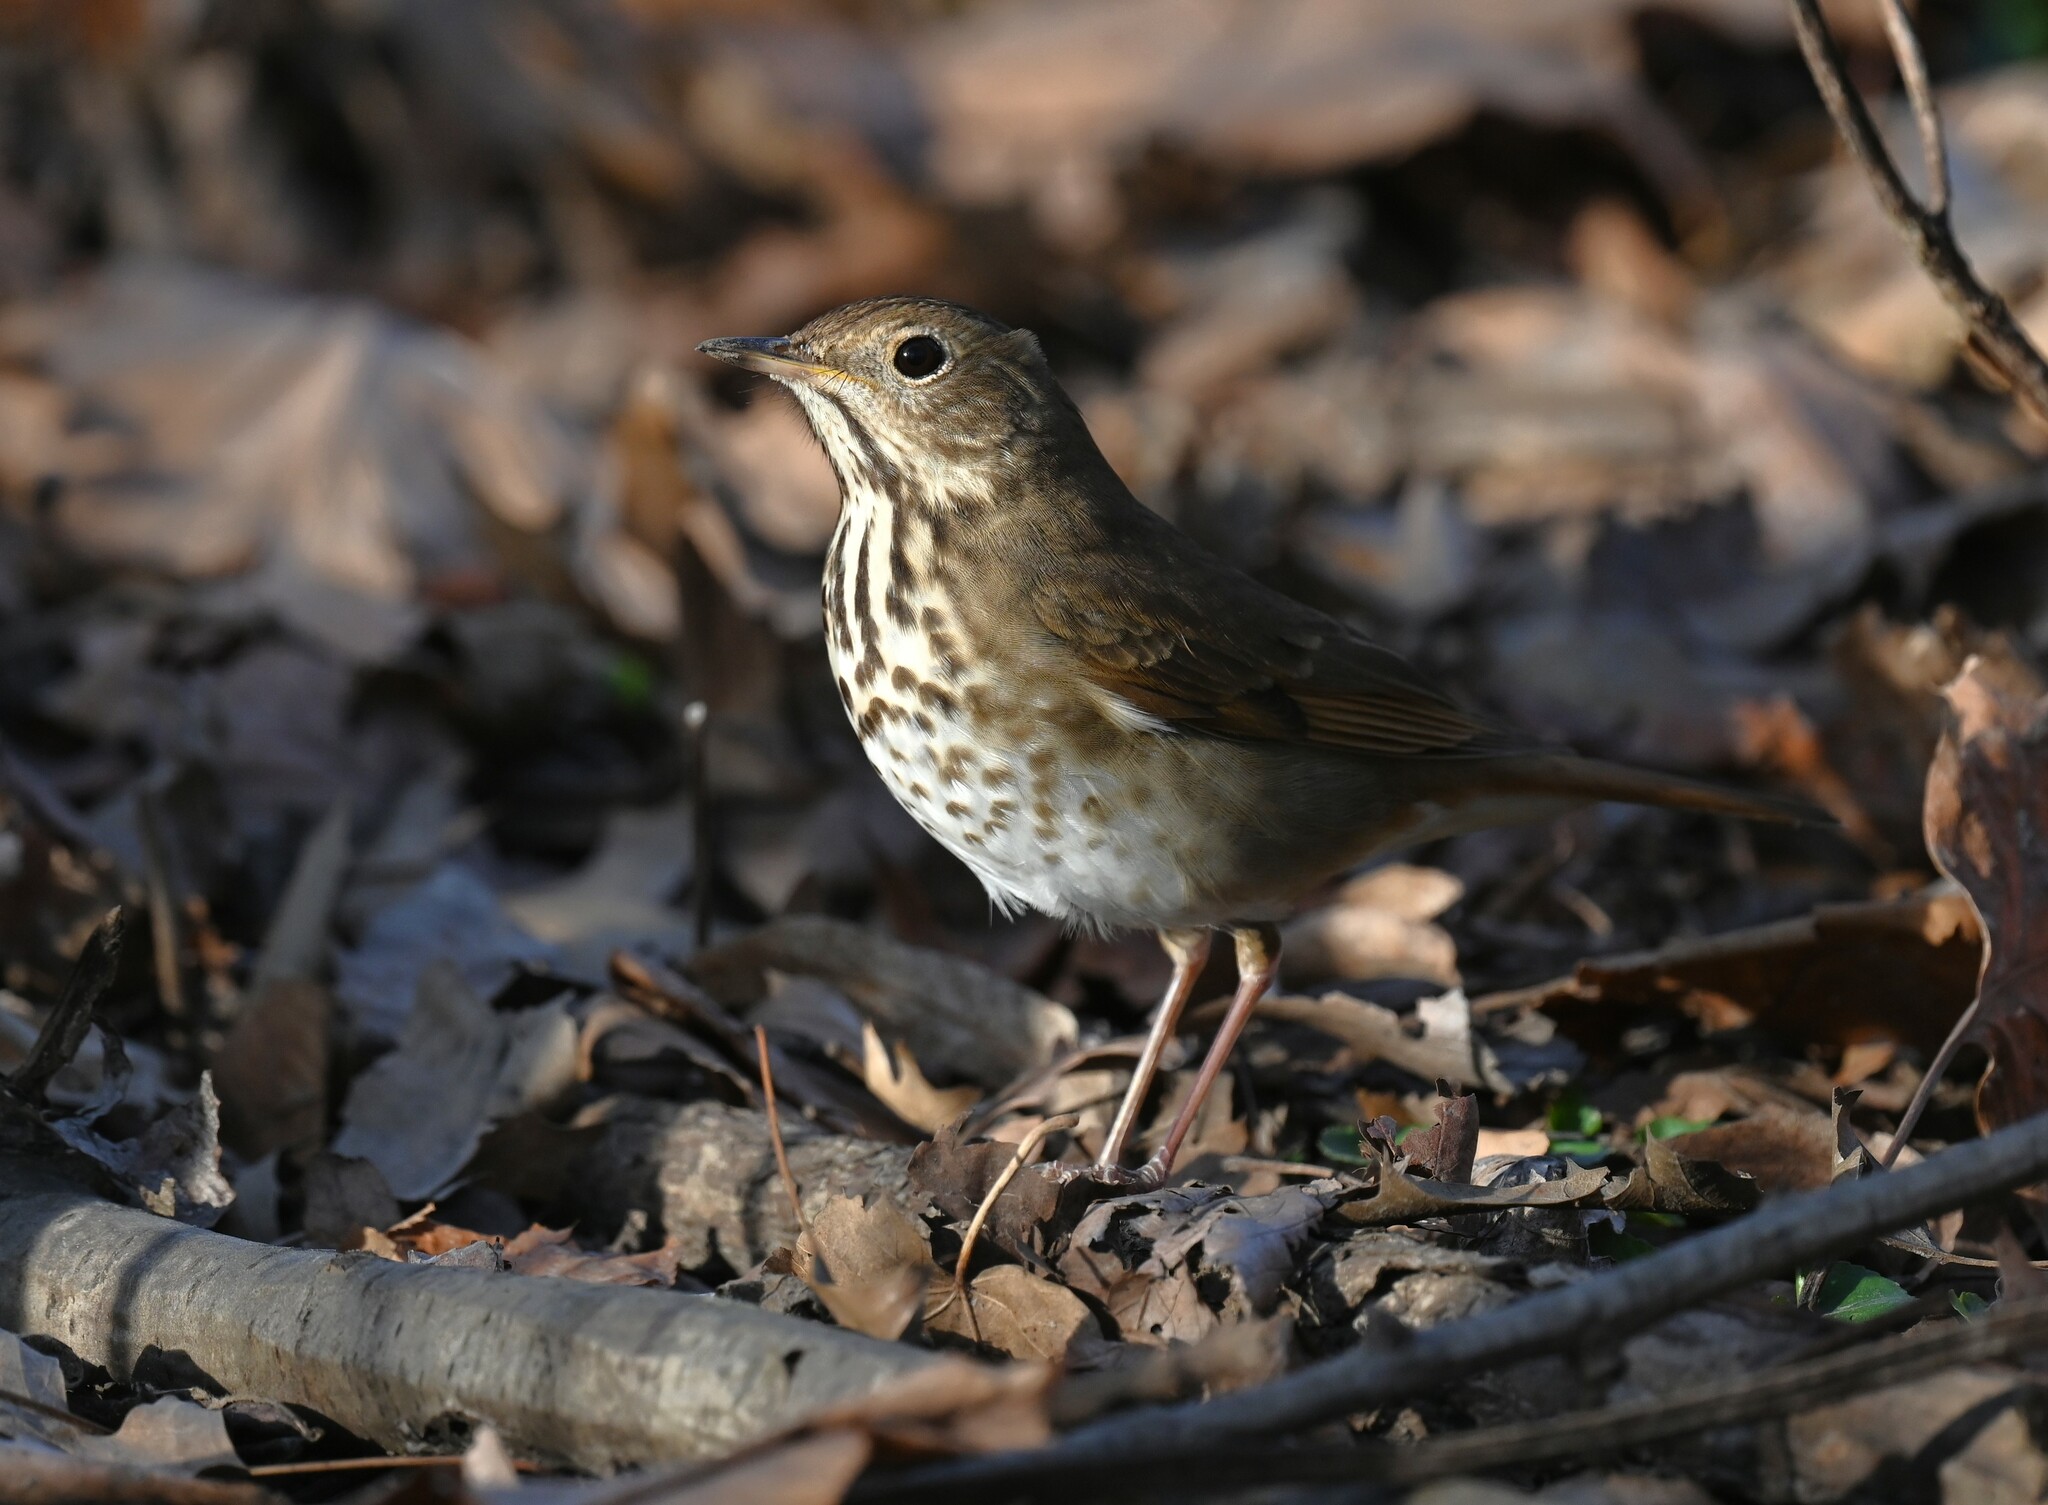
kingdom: Animalia
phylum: Chordata
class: Aves
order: Passeriformes
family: Turdidae
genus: Catharus
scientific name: Catharus guttatus
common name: Hermit thrush
